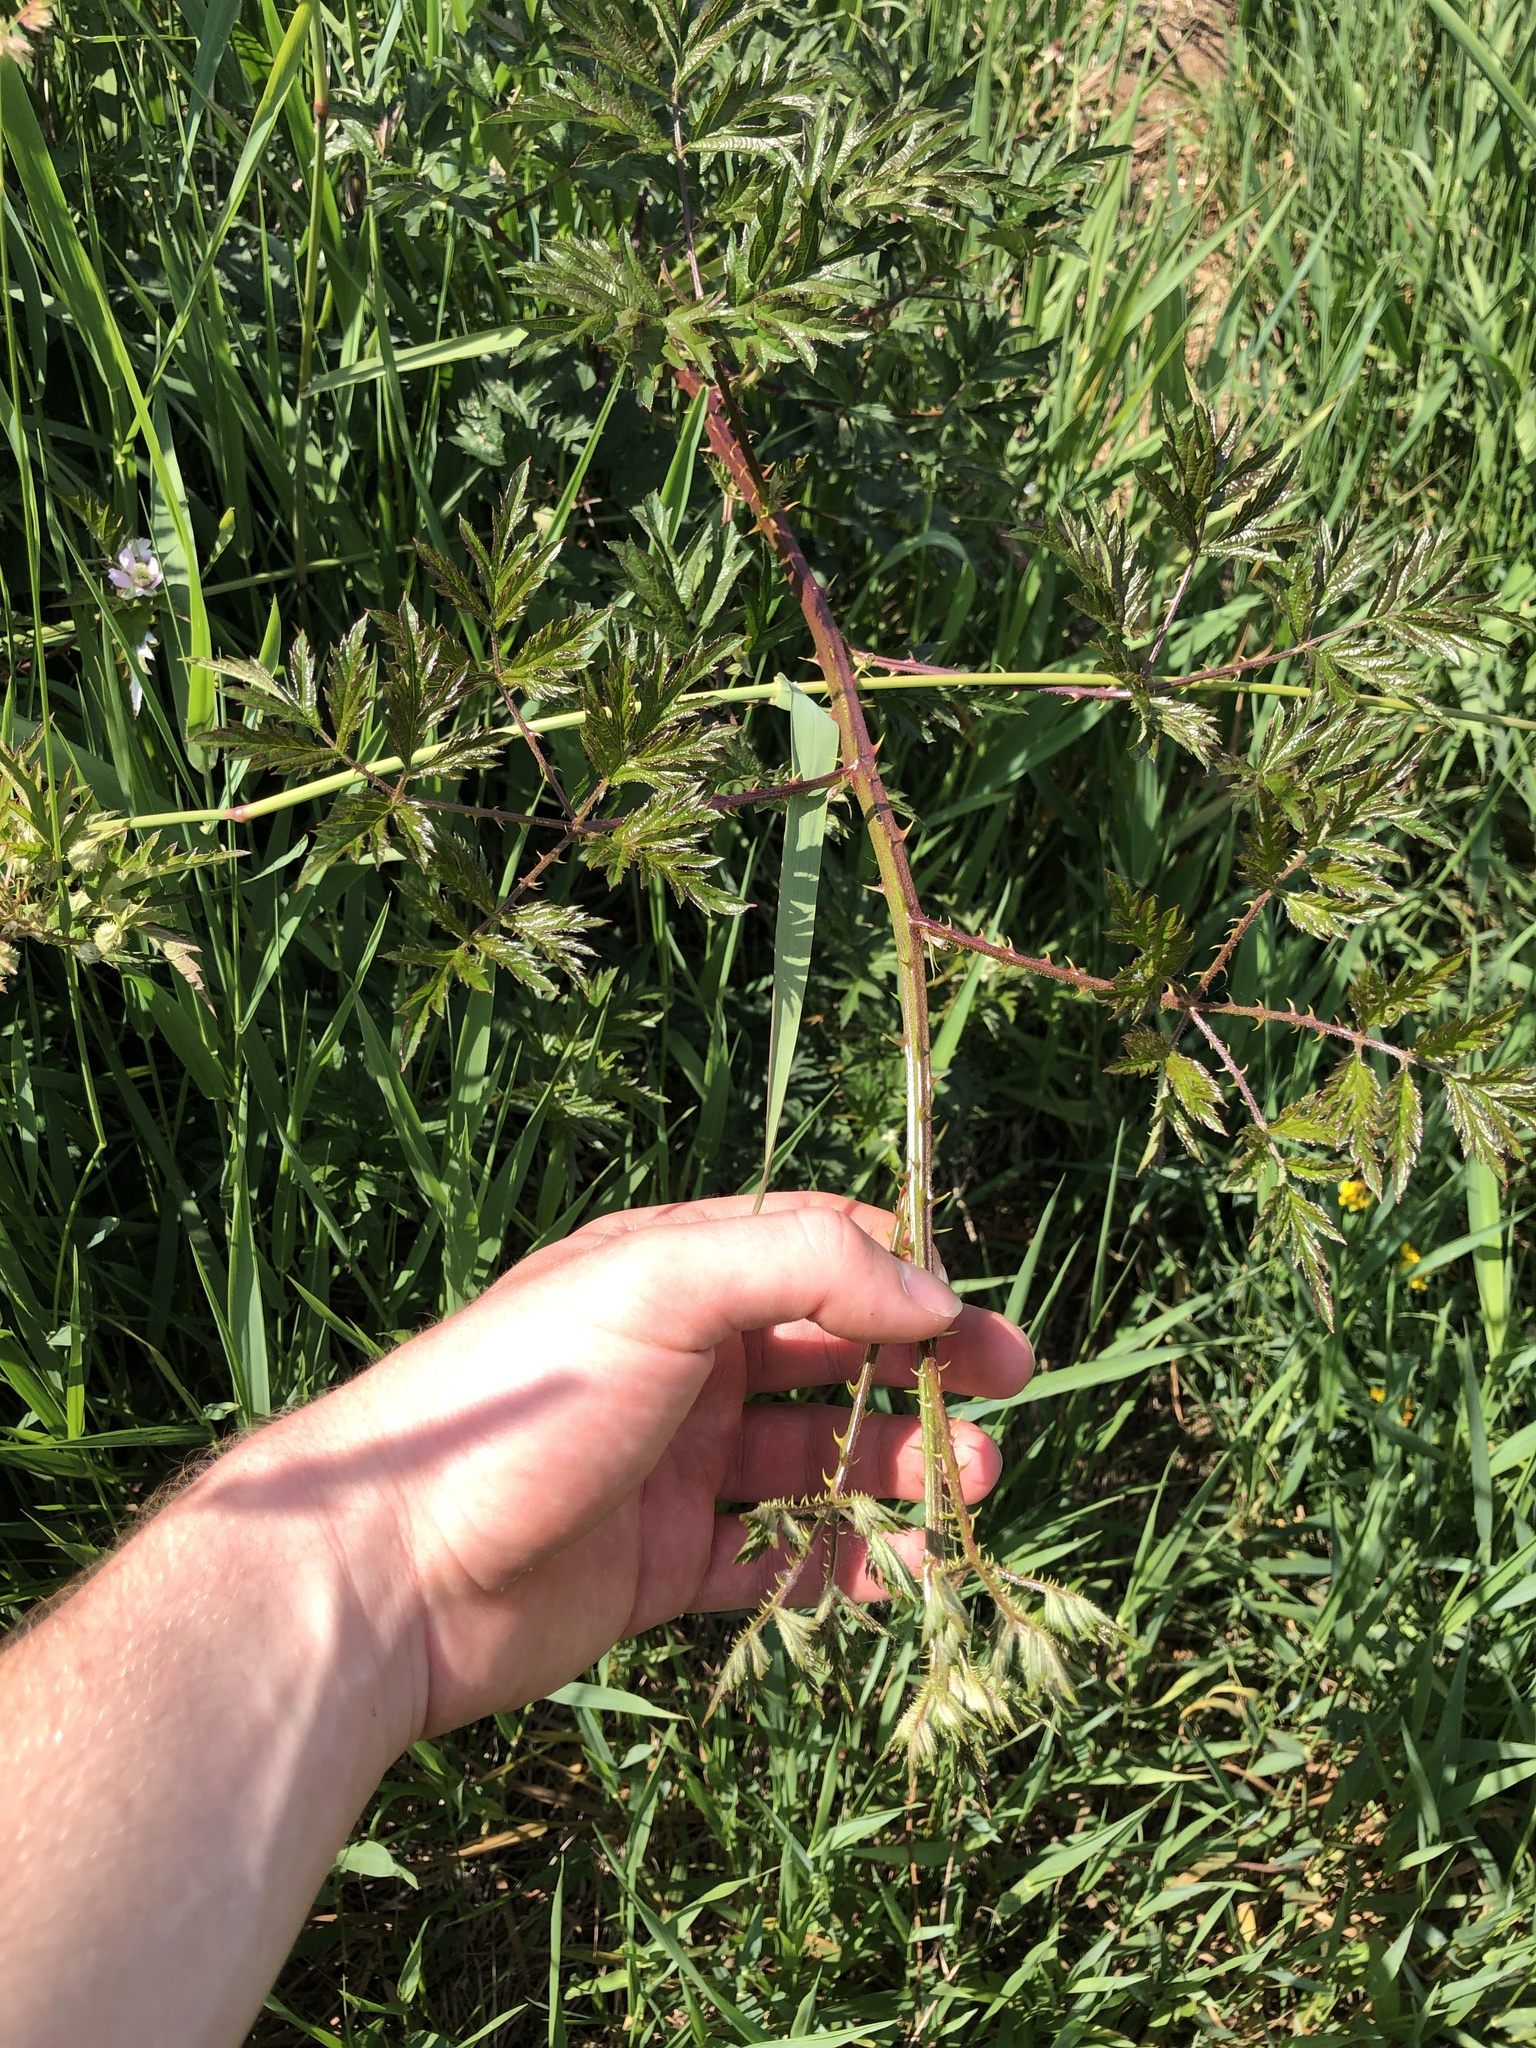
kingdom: Plantae
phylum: Tracheophyta
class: Magnoliopsida
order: Rosales
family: Rosaceae
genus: Rubus
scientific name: Rubus laciniatus
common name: Evergreen blackberry
